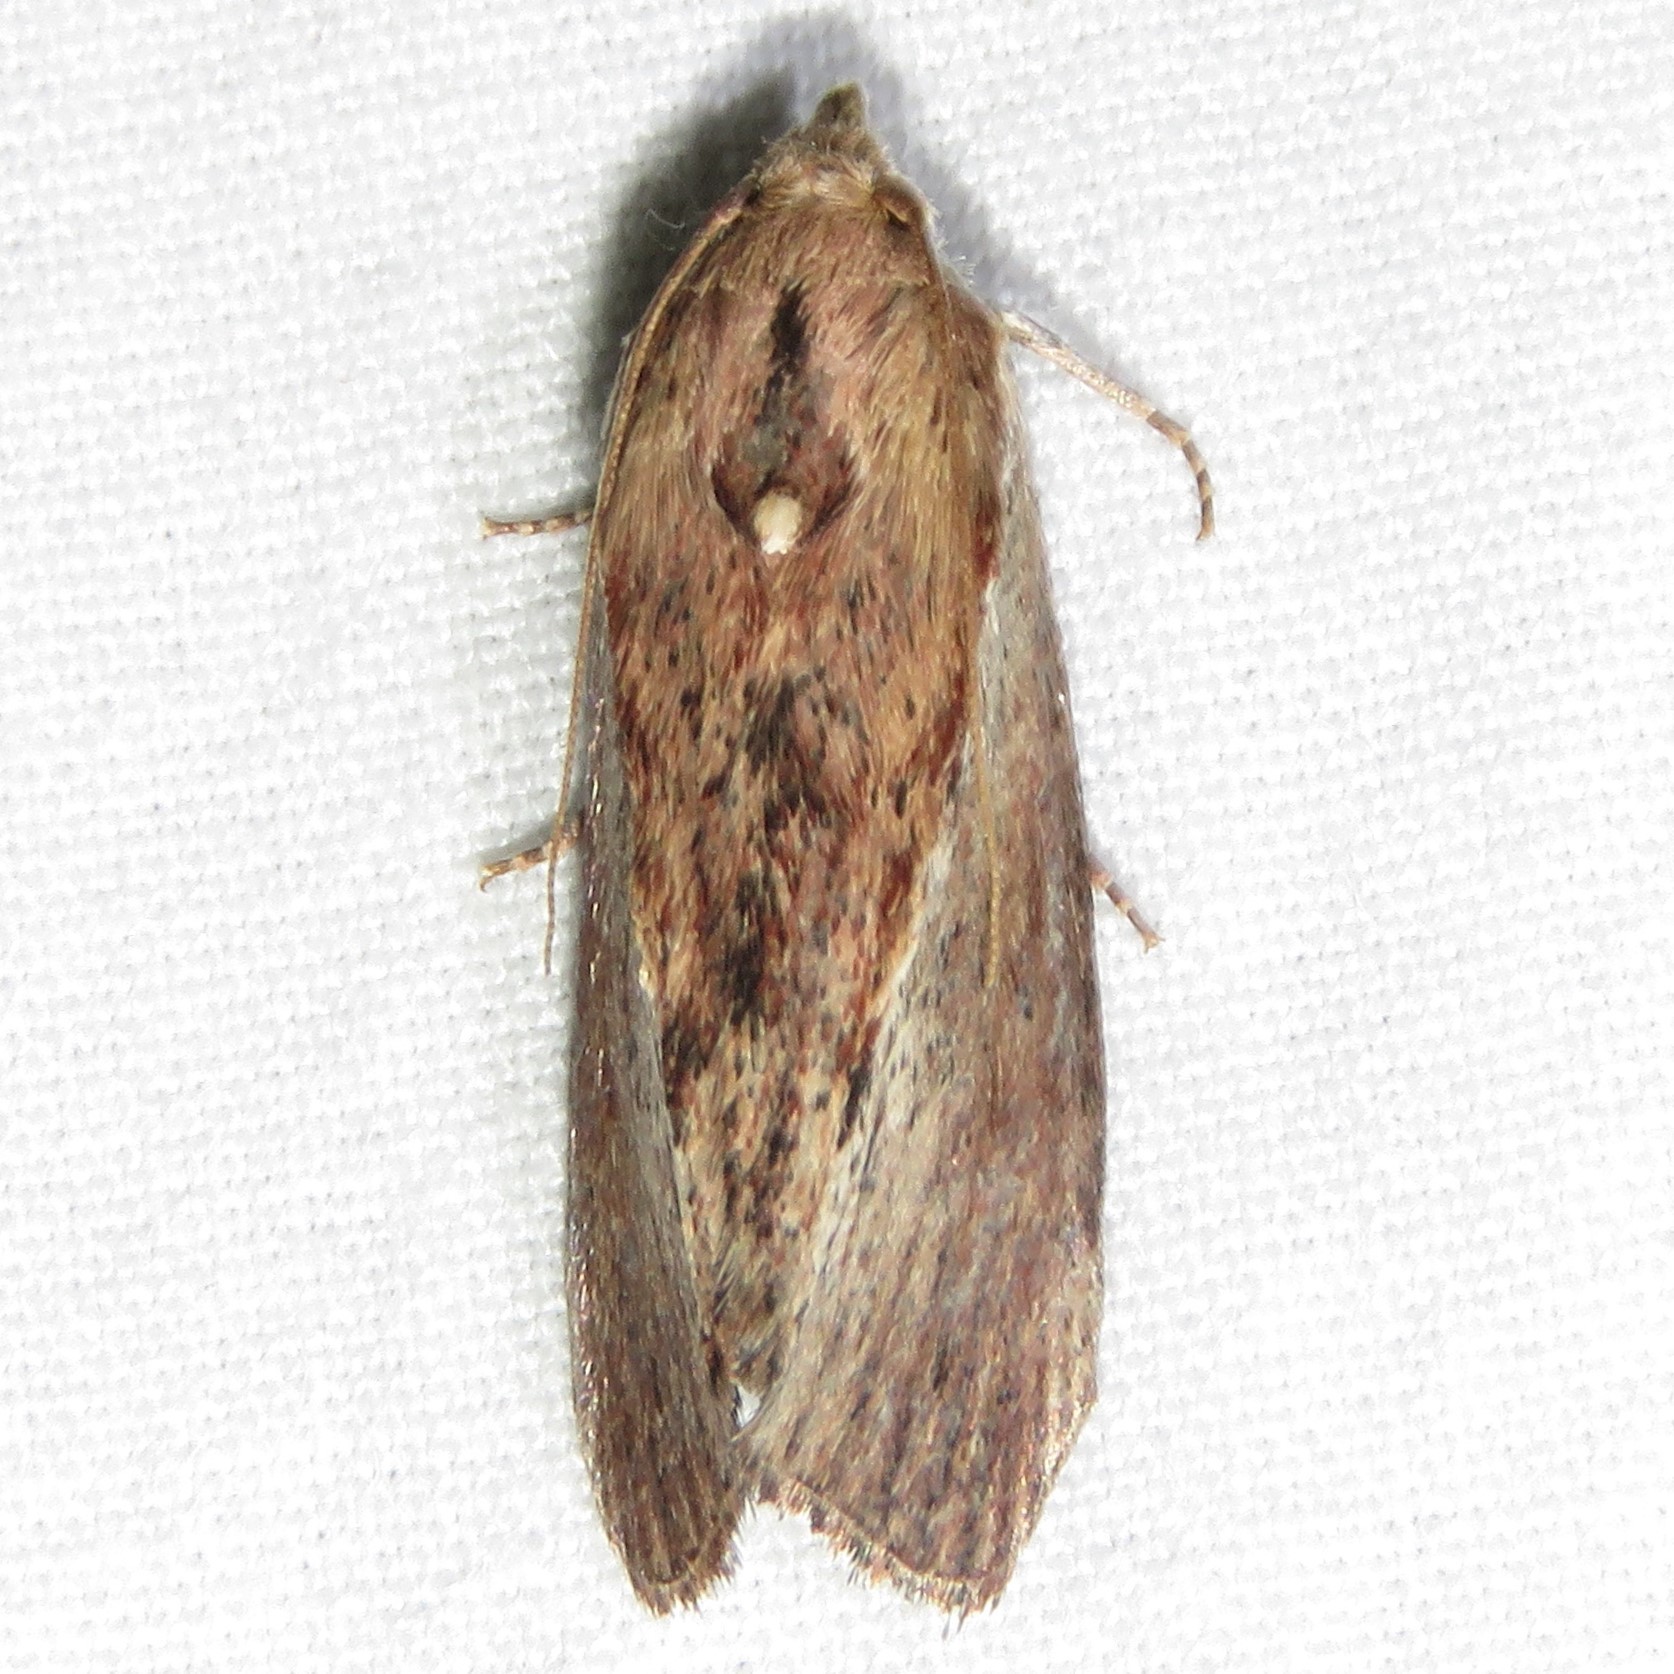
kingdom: Animalia
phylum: Arthropoda
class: Insecta
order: Lepidoptera
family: Pyralidae
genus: Galleria
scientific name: Galleria mellonella
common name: Greater wax moth
